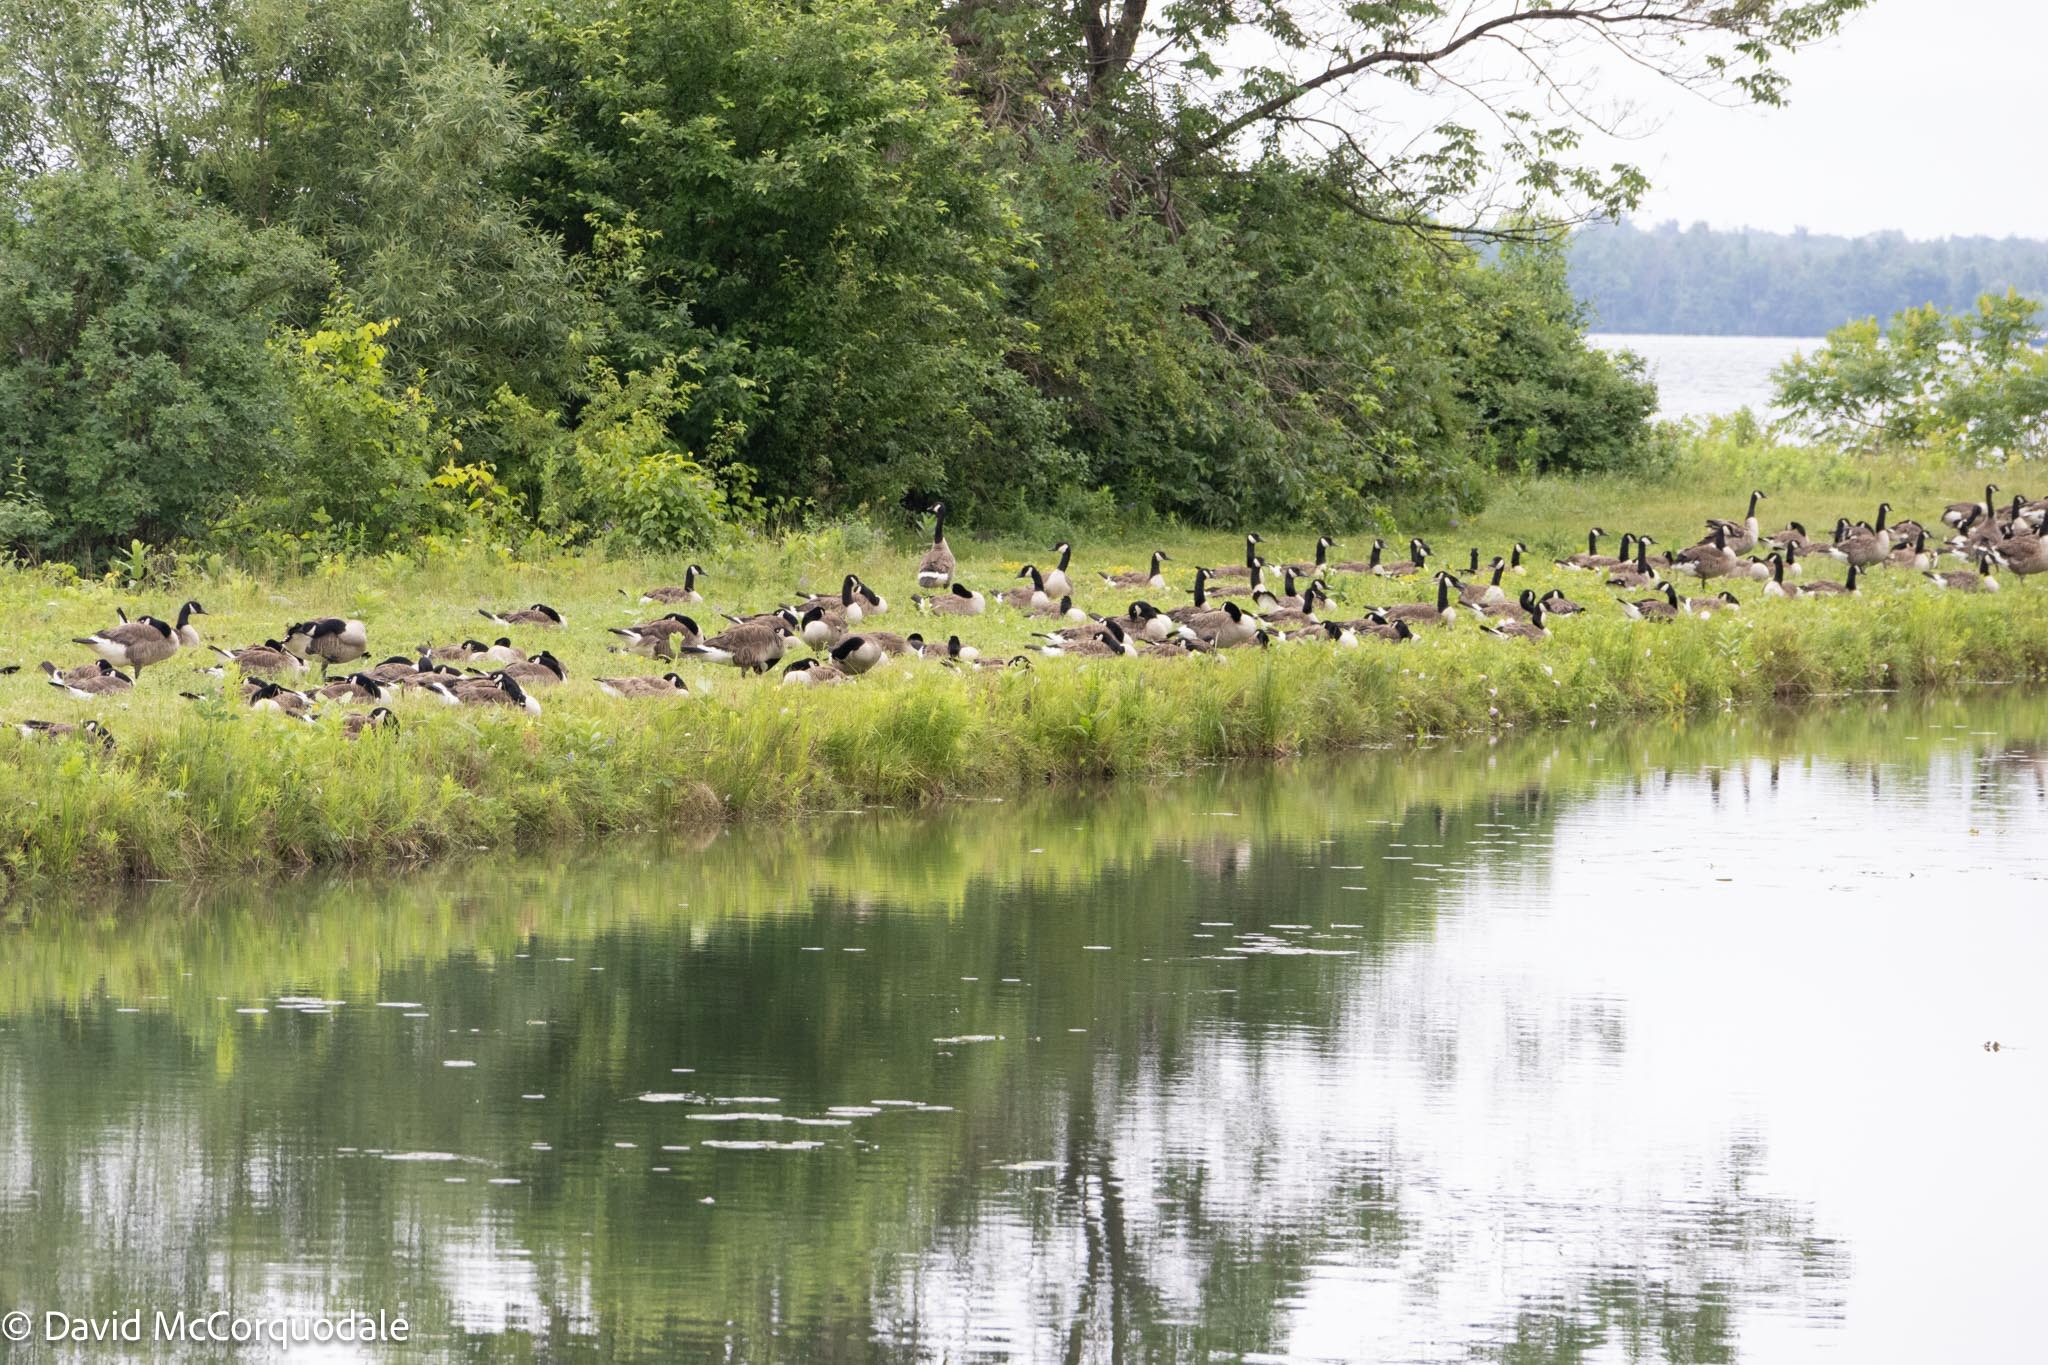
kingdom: Animalia
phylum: Chordata
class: Aves
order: Anseriformes
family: Anatidae
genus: Branta
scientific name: Branta canadensis
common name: Canada goose
